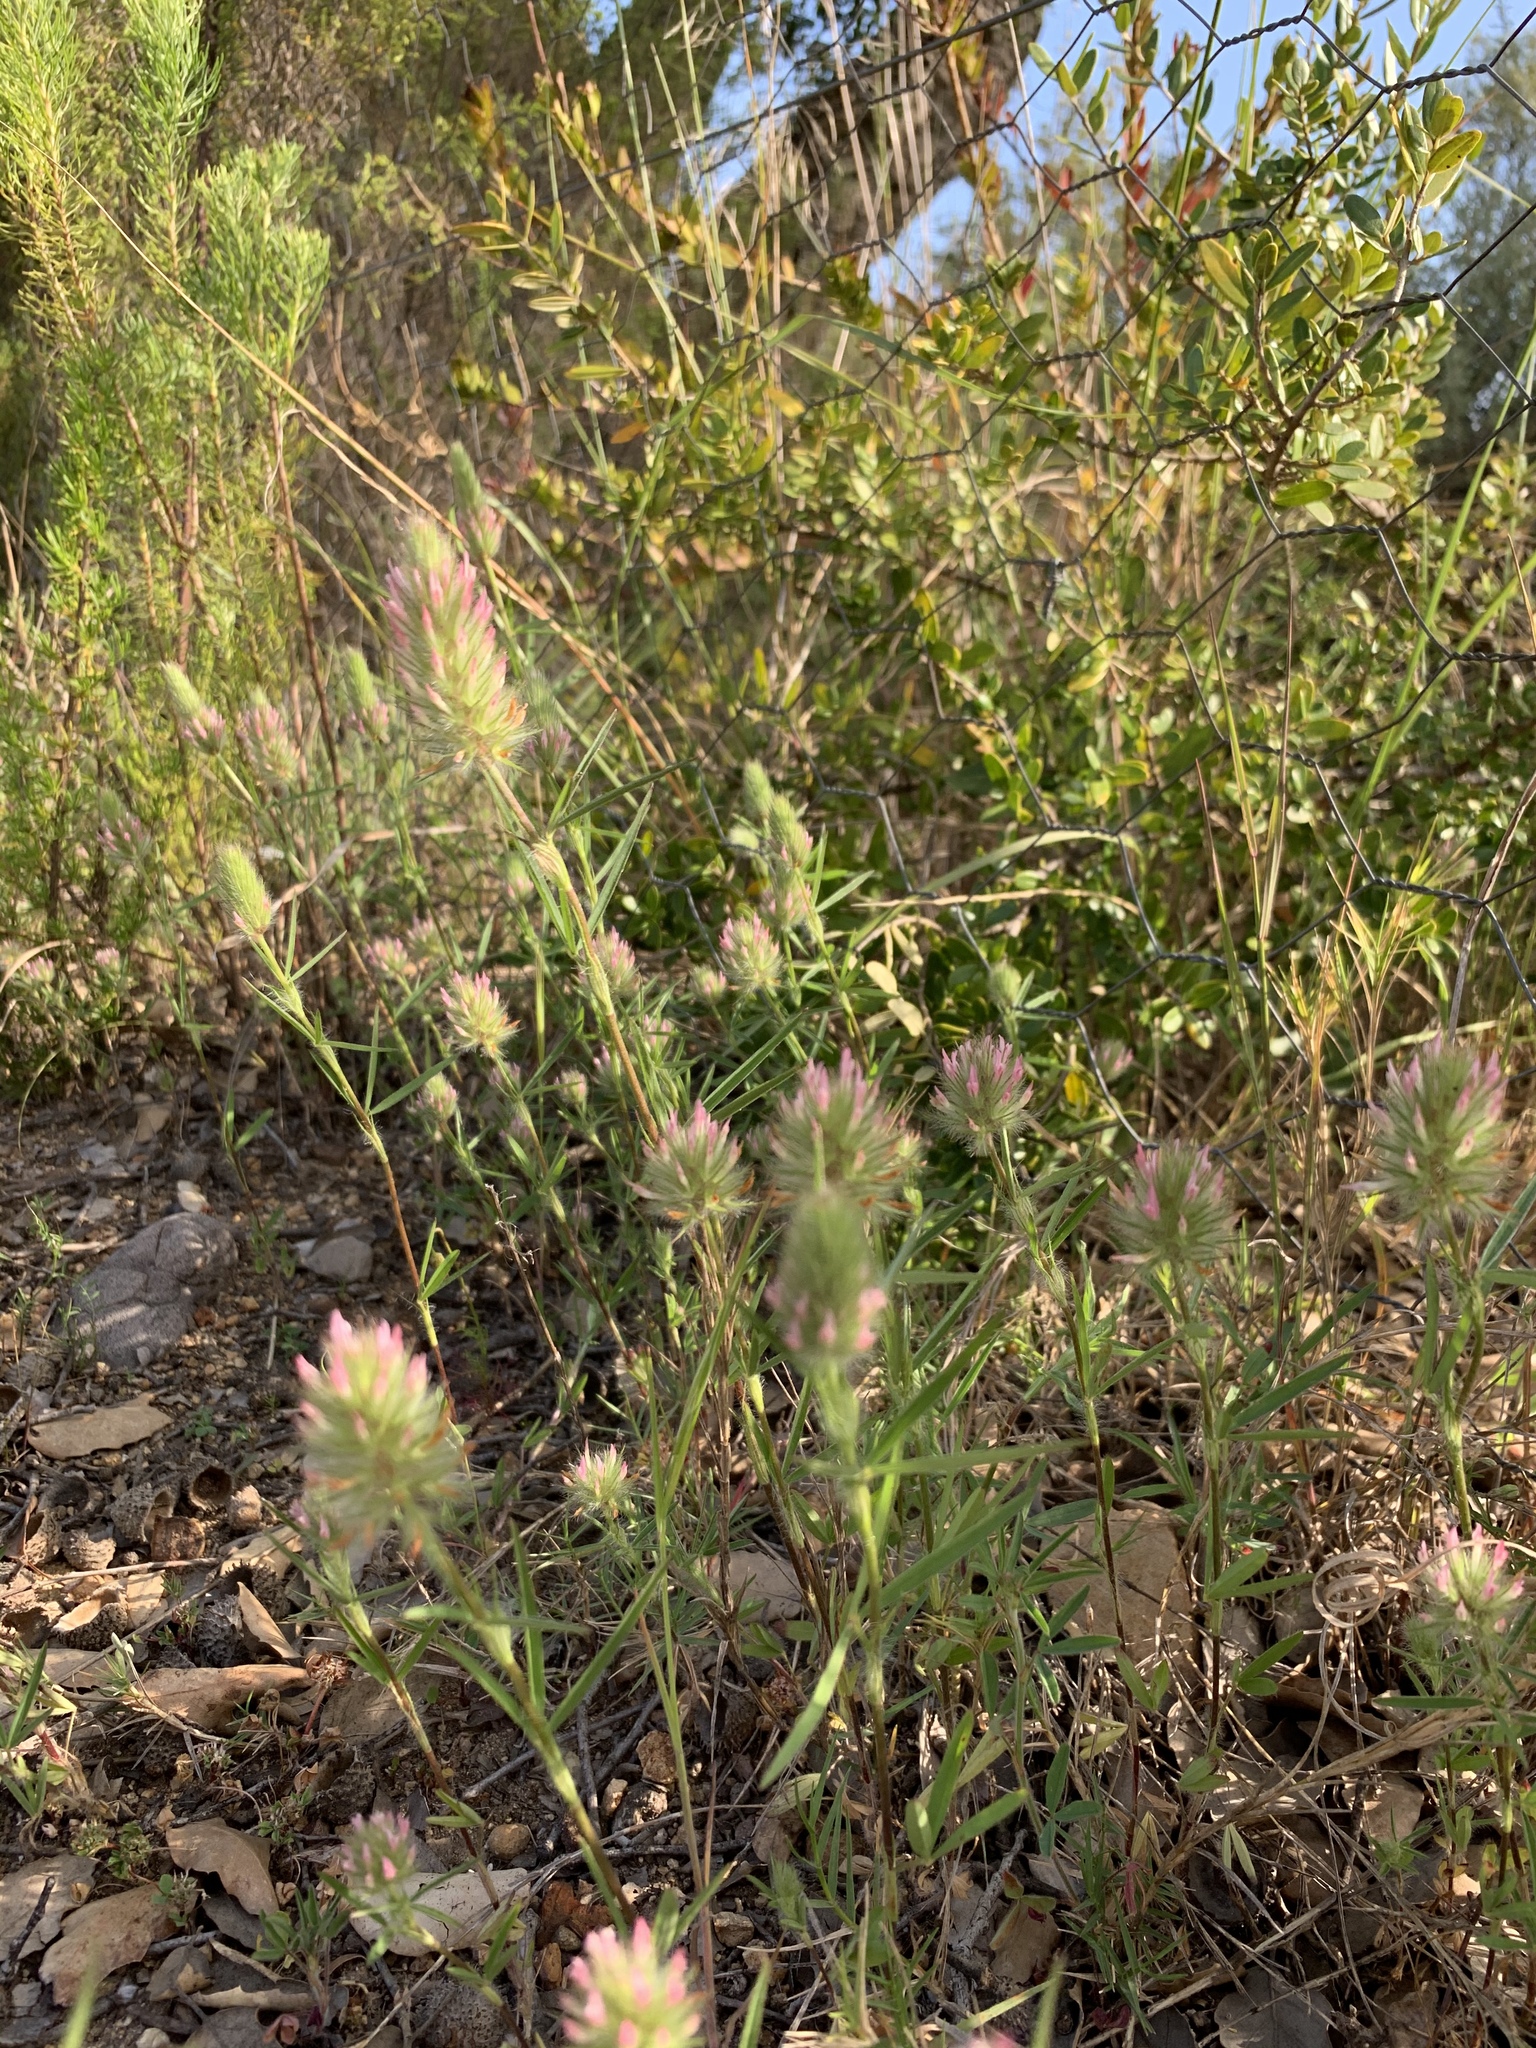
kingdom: Plantae
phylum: Tracheophyta
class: Magnoliopsida
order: Fabales
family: Fabaceae
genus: Trifolium
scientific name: Trifolium angustifolium
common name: Narrow clover
